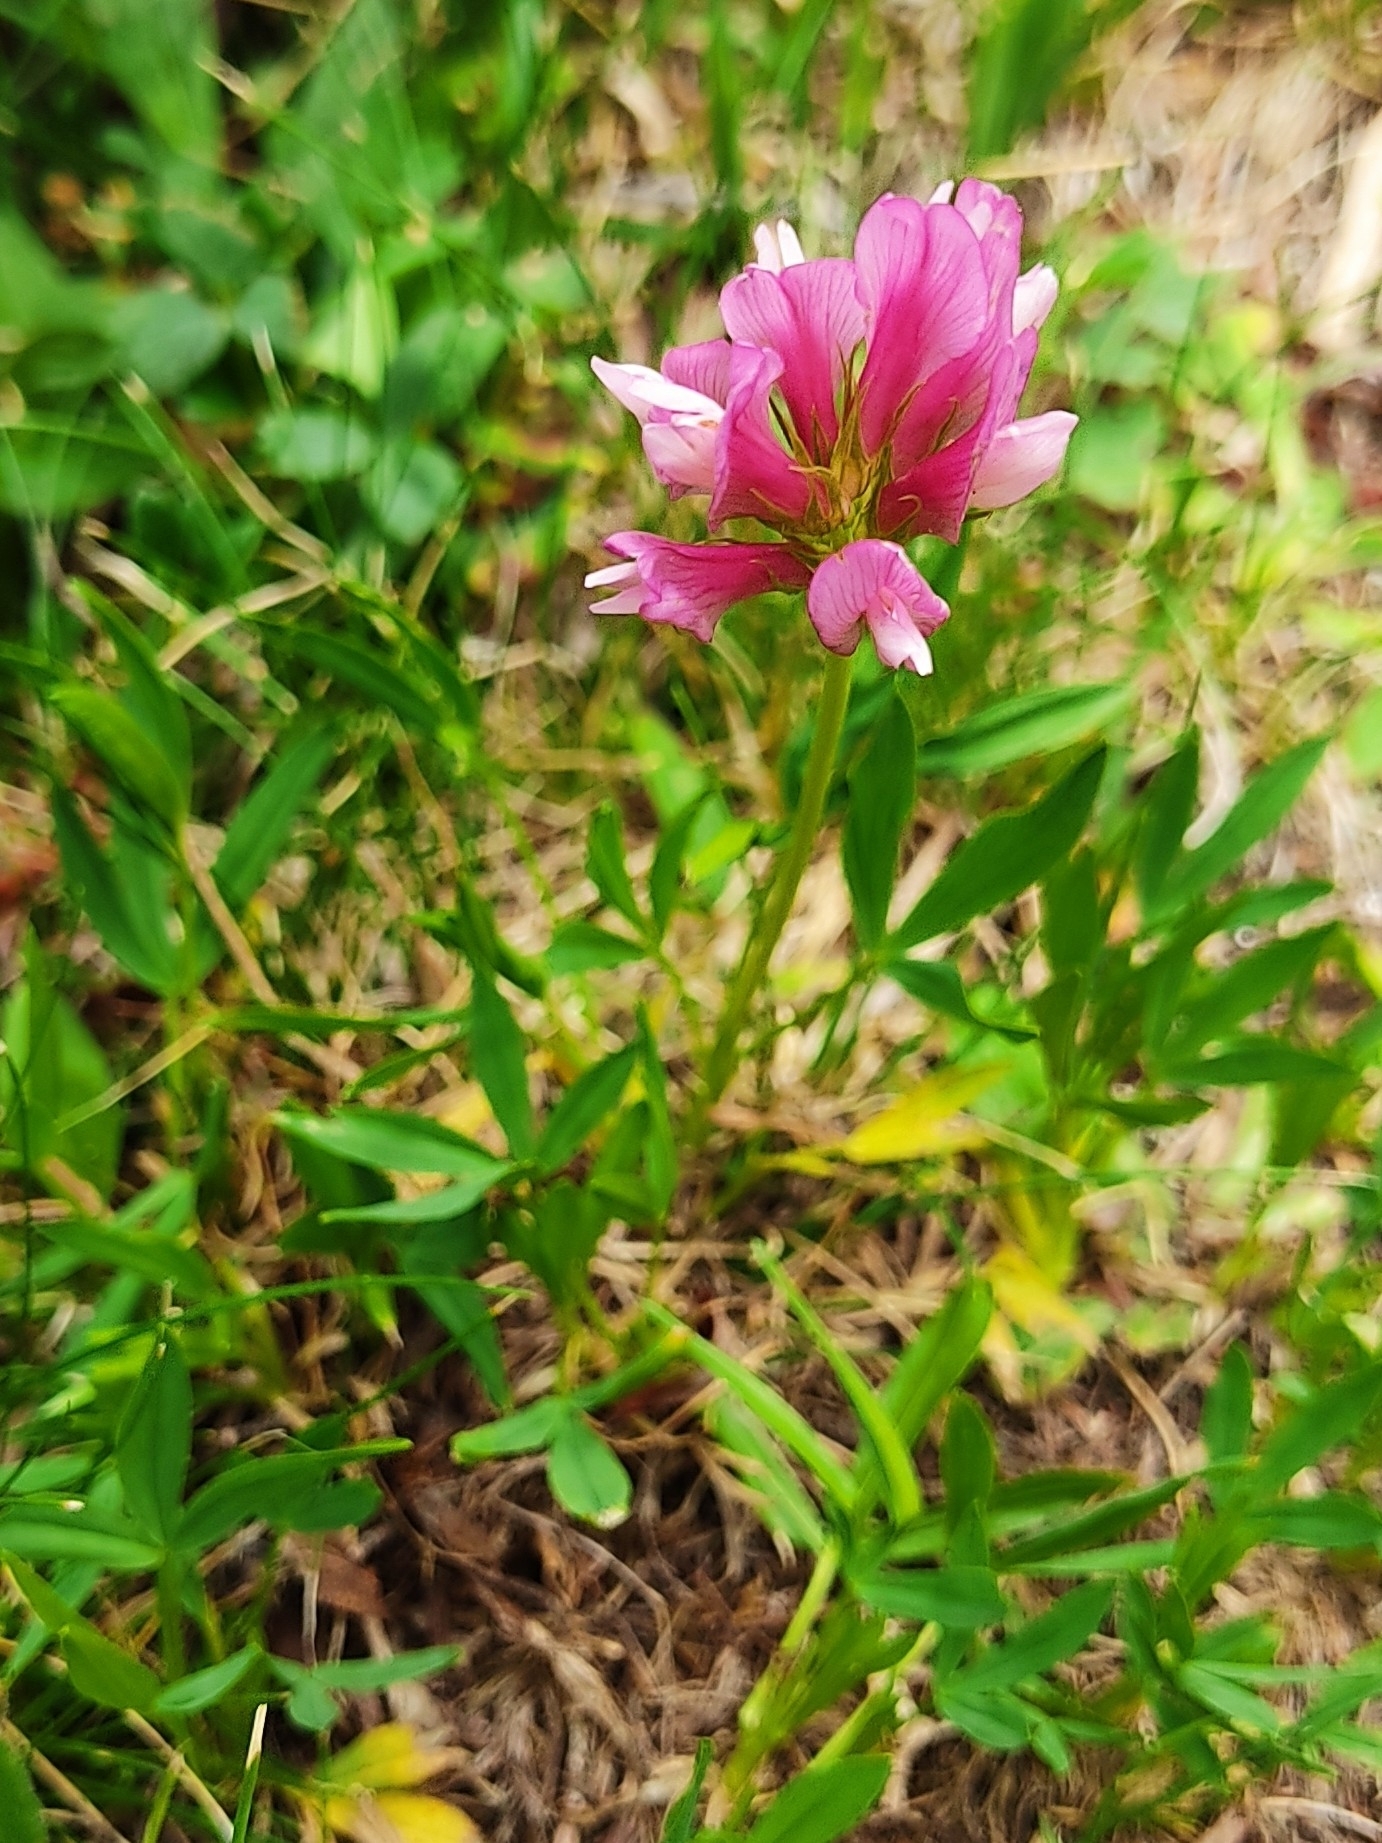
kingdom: Plantae
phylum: Tracheophyta
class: Magnoliopsida
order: Fabales
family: Fabaceae
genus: Trifolium
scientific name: Trifolium alpinum
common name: Alpine clover
